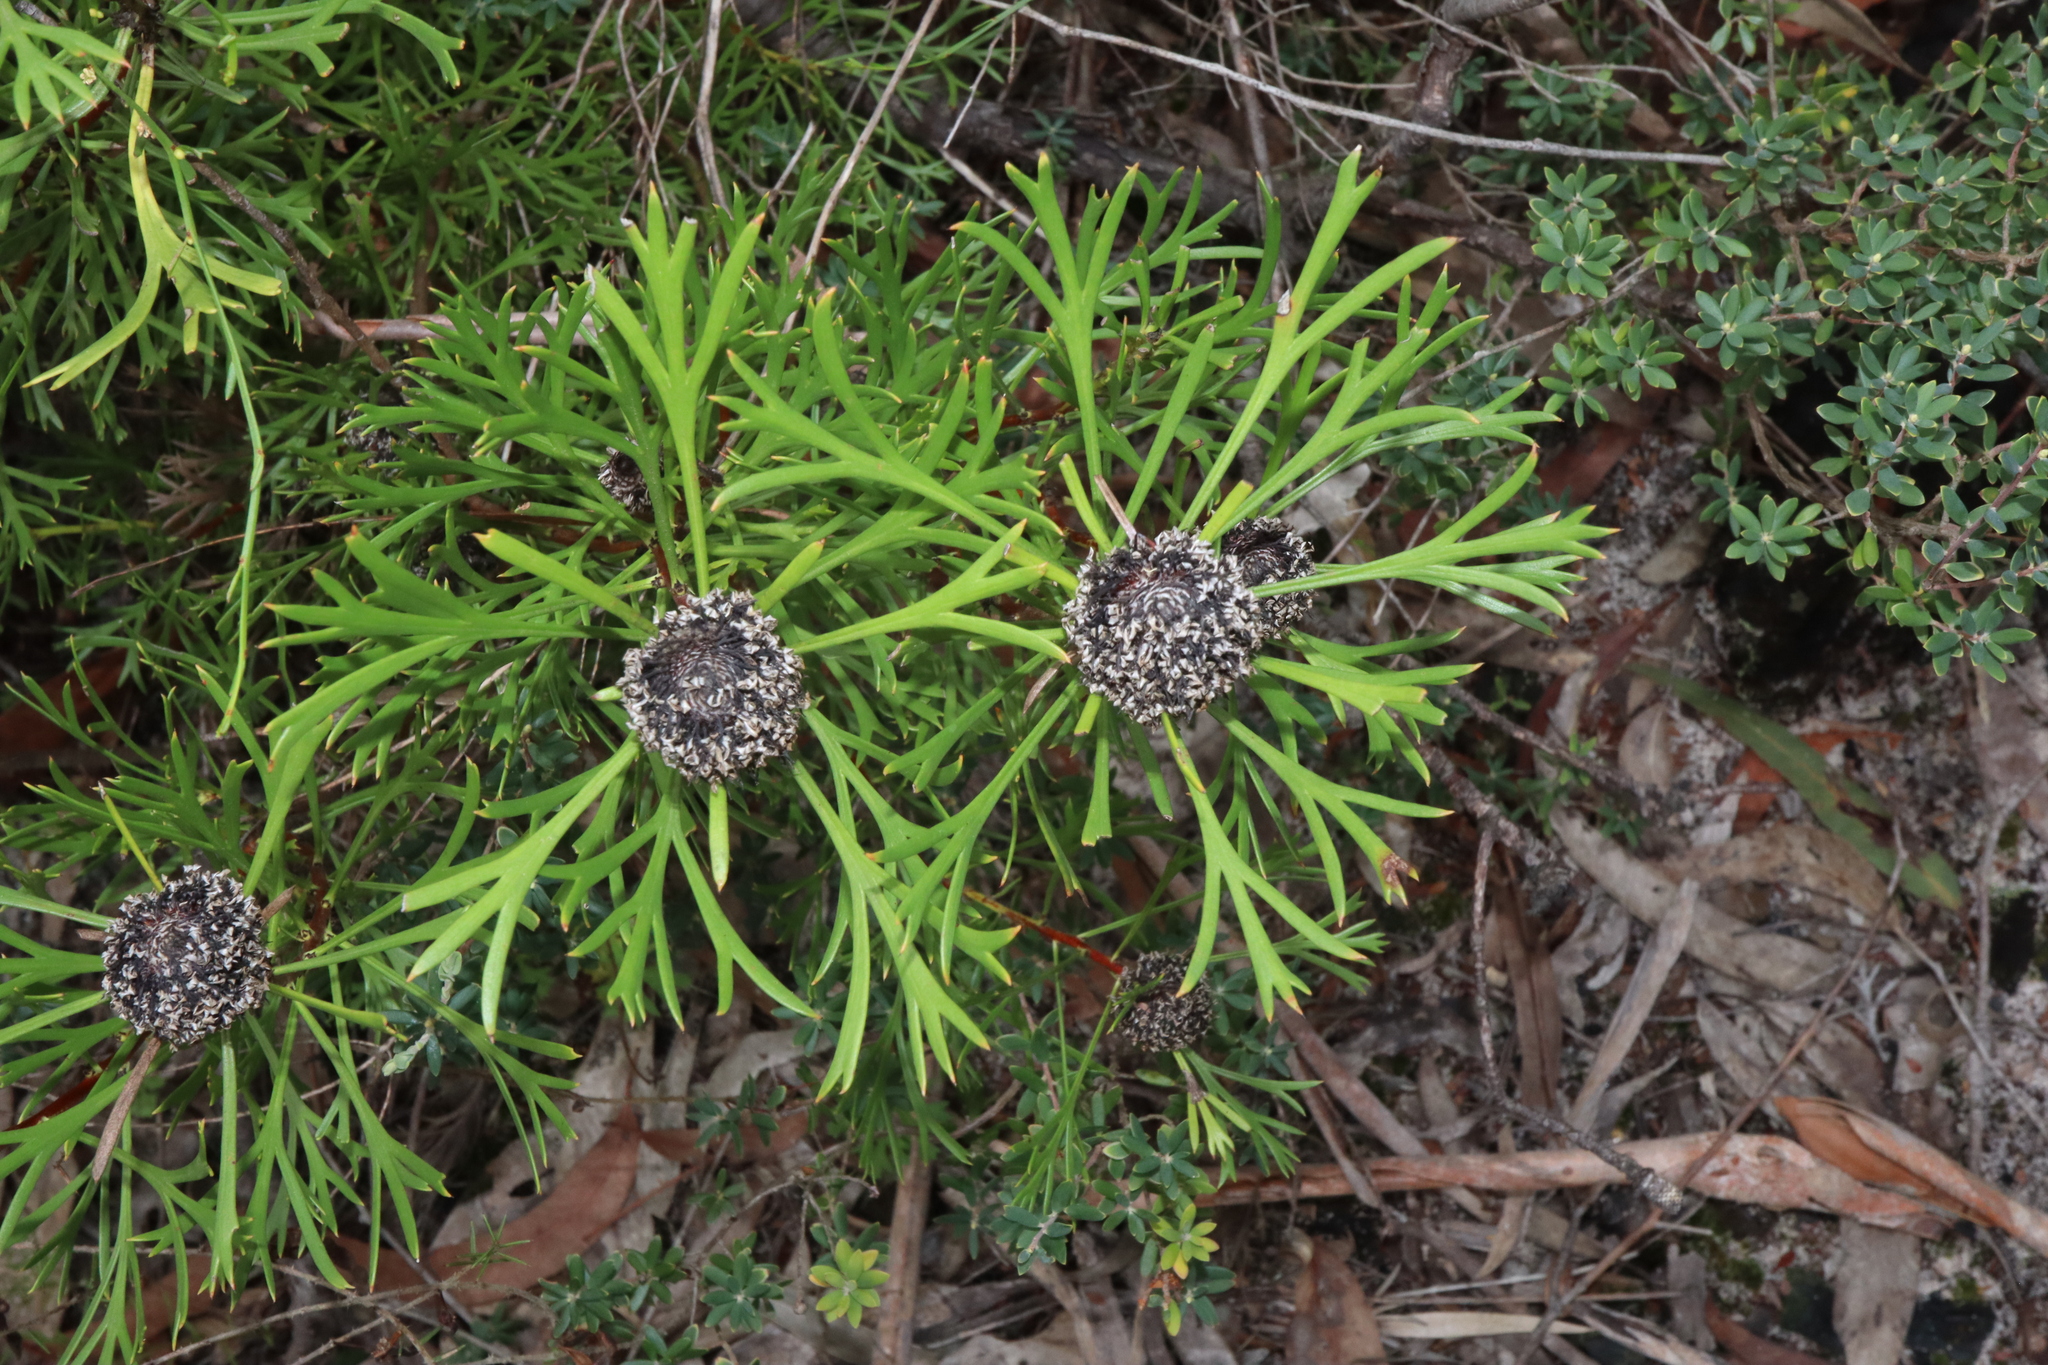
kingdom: Plantae
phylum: Tracheophyta
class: Magnoliopsida
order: Proteales
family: Proteaceae
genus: Isopogon
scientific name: Isopogon anemonifolius
